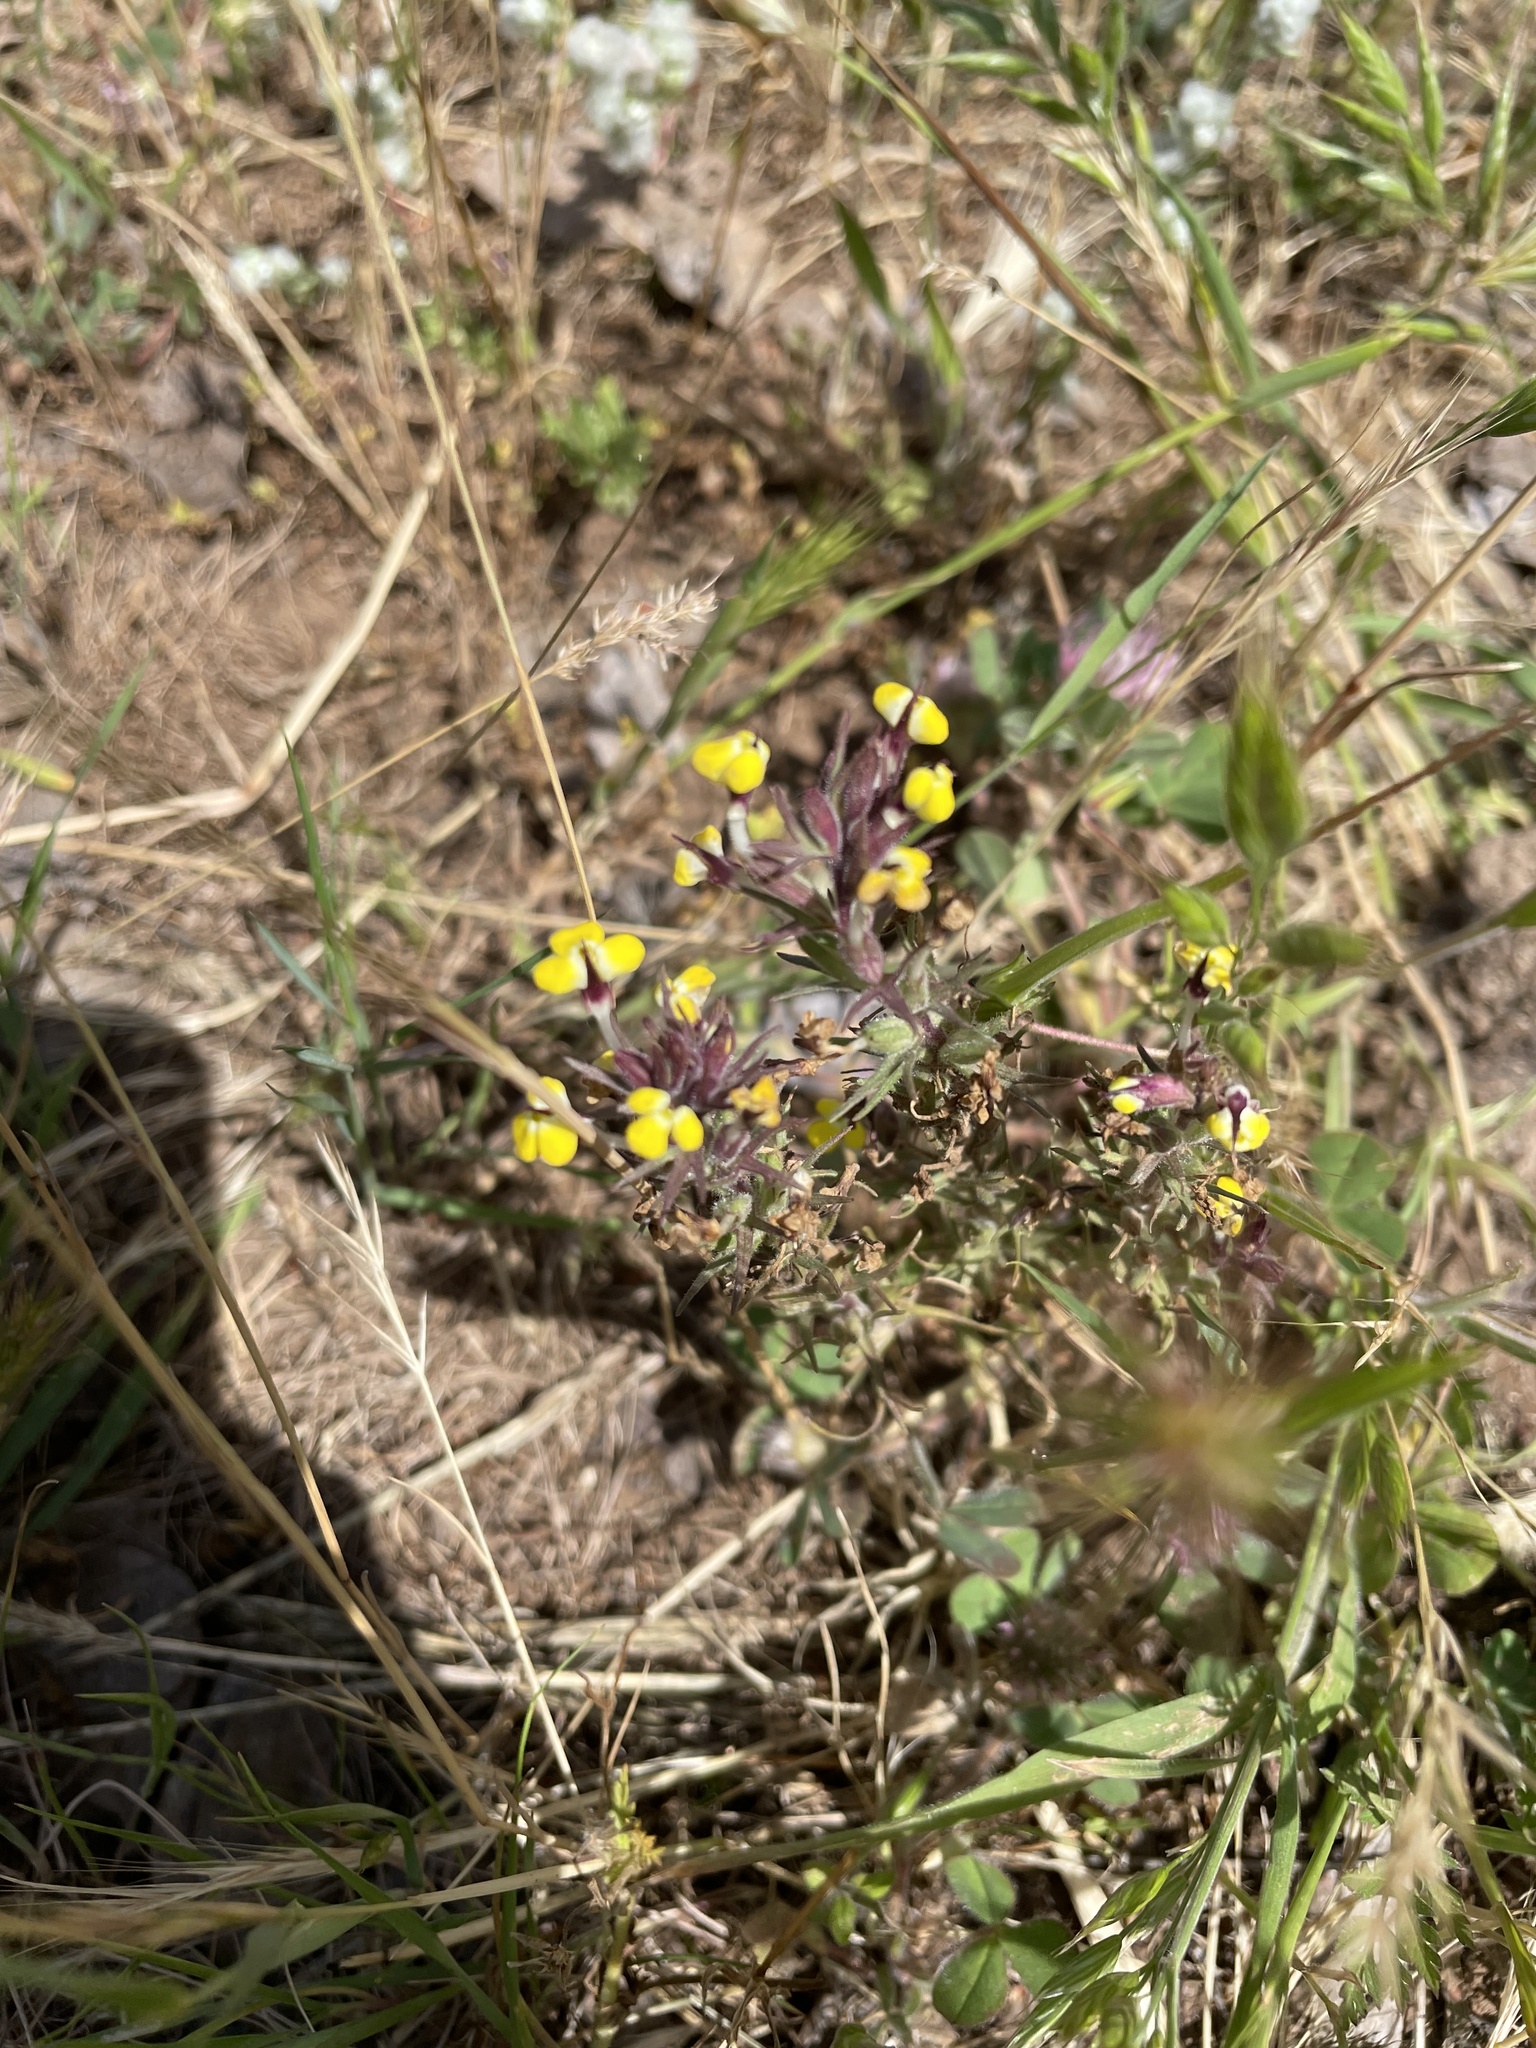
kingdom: Plantae
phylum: Tracheophyta
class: Magnoliopsida
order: Lamiales
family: Orobanchaceae
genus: Triphysaria
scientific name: Triphysaria eriantha
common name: Johnny-tuck
